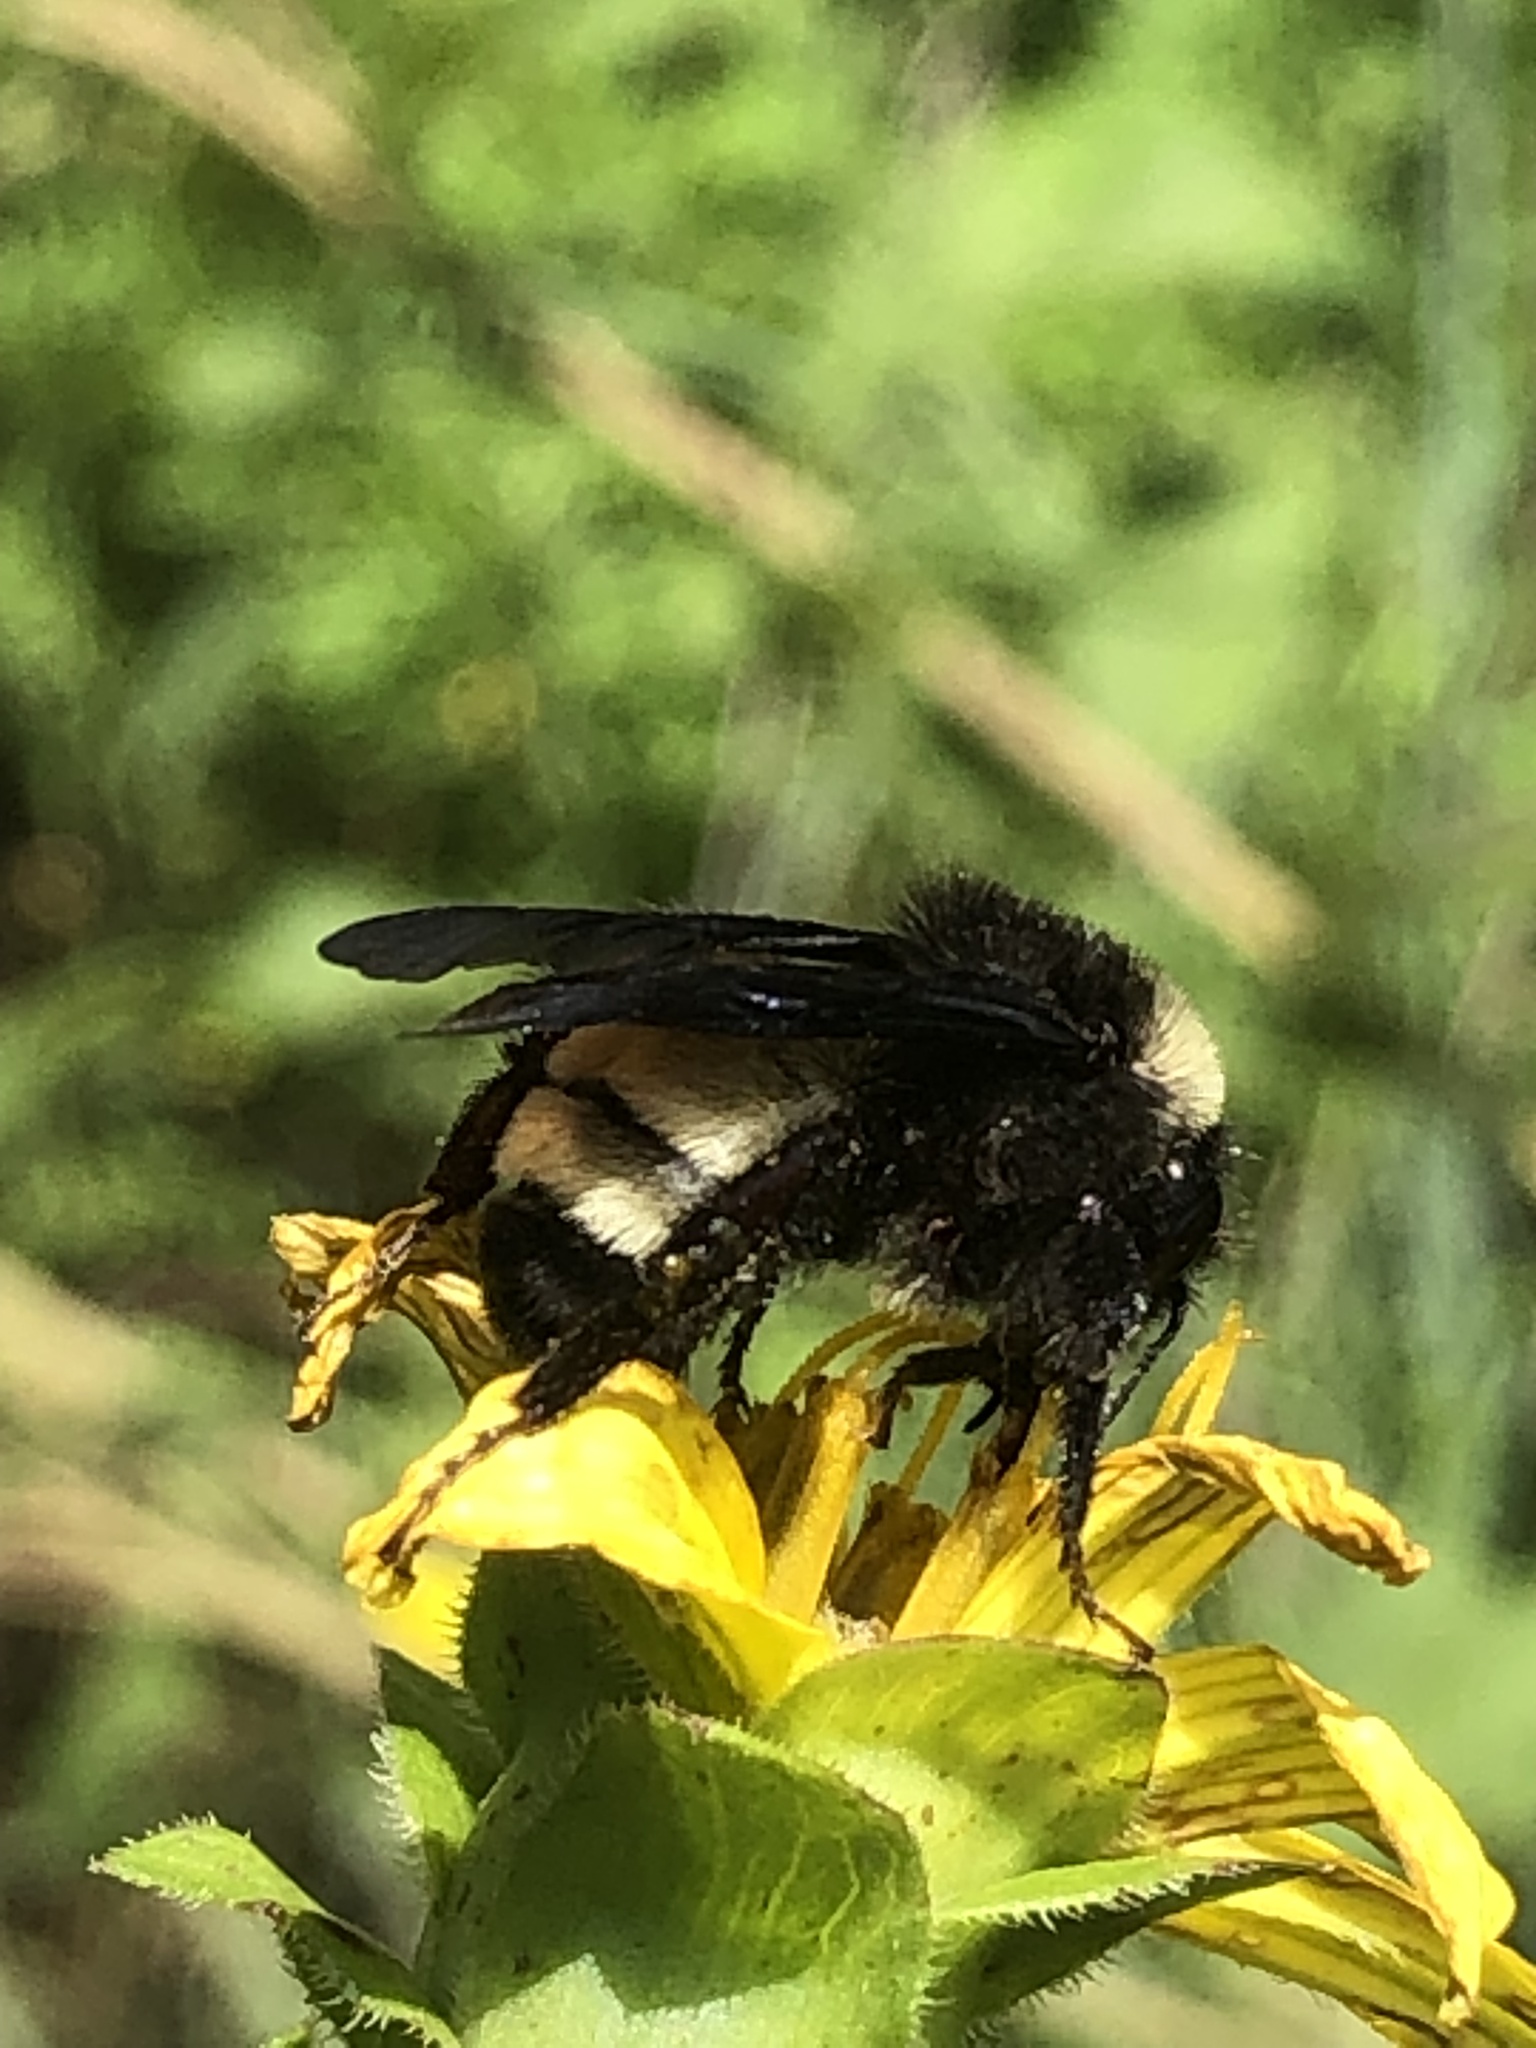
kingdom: Animalia
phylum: Arthropoda
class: Insecta
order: Hymenoptera
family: Apidae
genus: Bombus
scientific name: Bombus pensylvanicus
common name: Bumble bee
